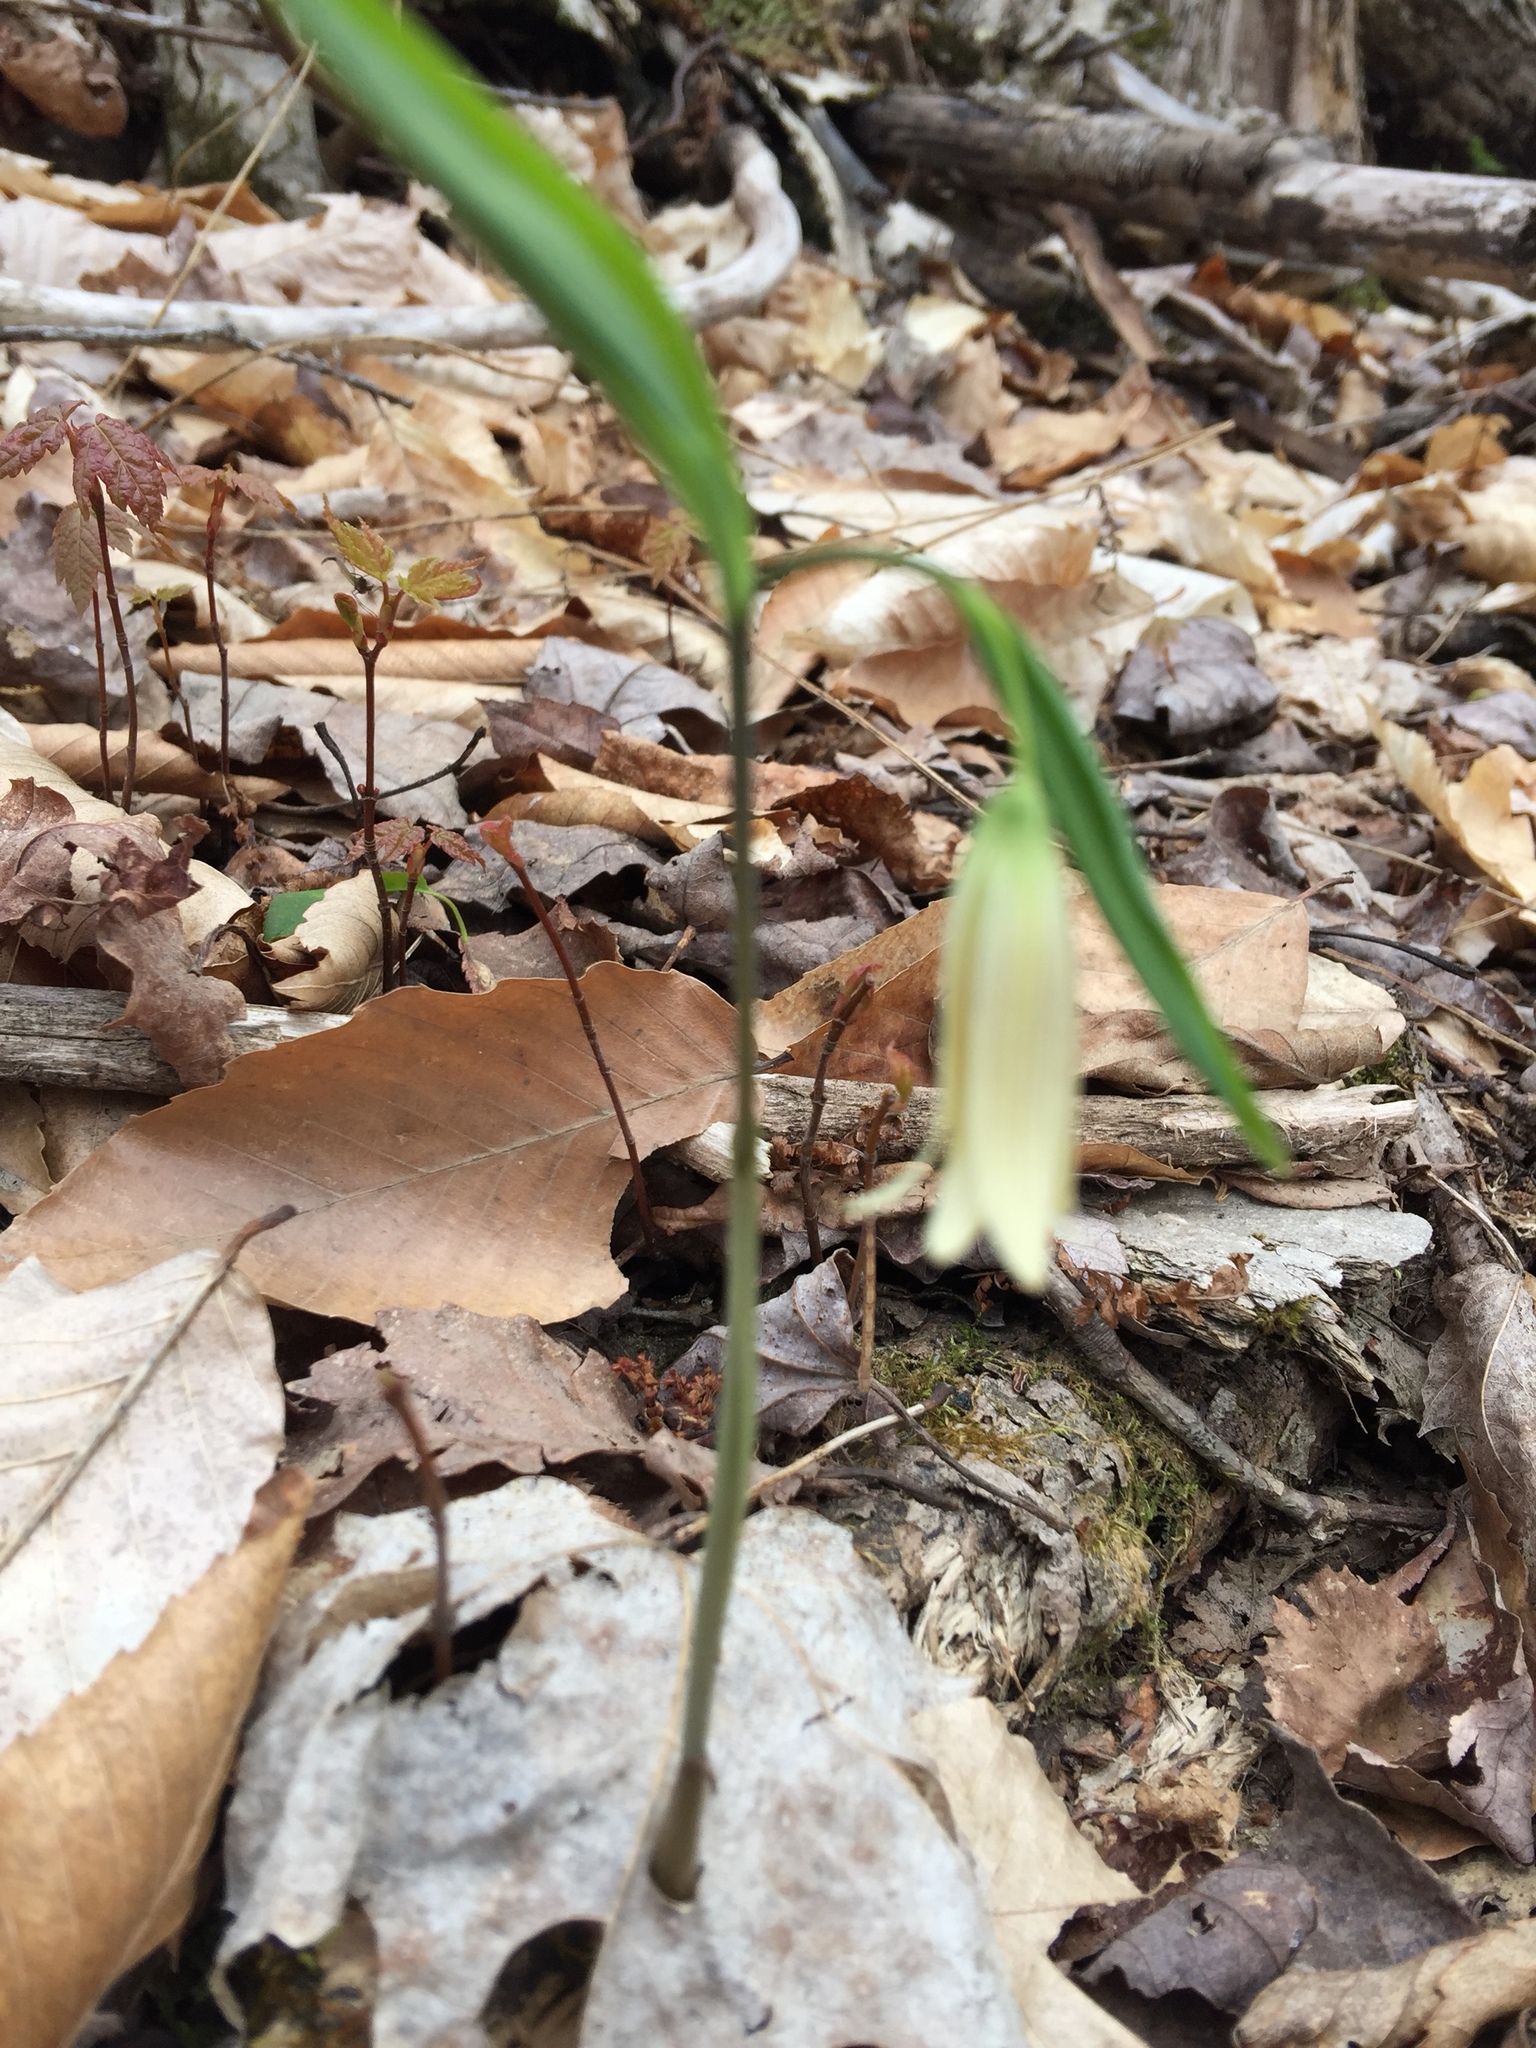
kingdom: Plantae
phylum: Tracheophyta
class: Liliopsida
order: Liliales
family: Colchicaceae
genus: Uvularia
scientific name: Uvularia sessilifolia
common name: Straw-lily
